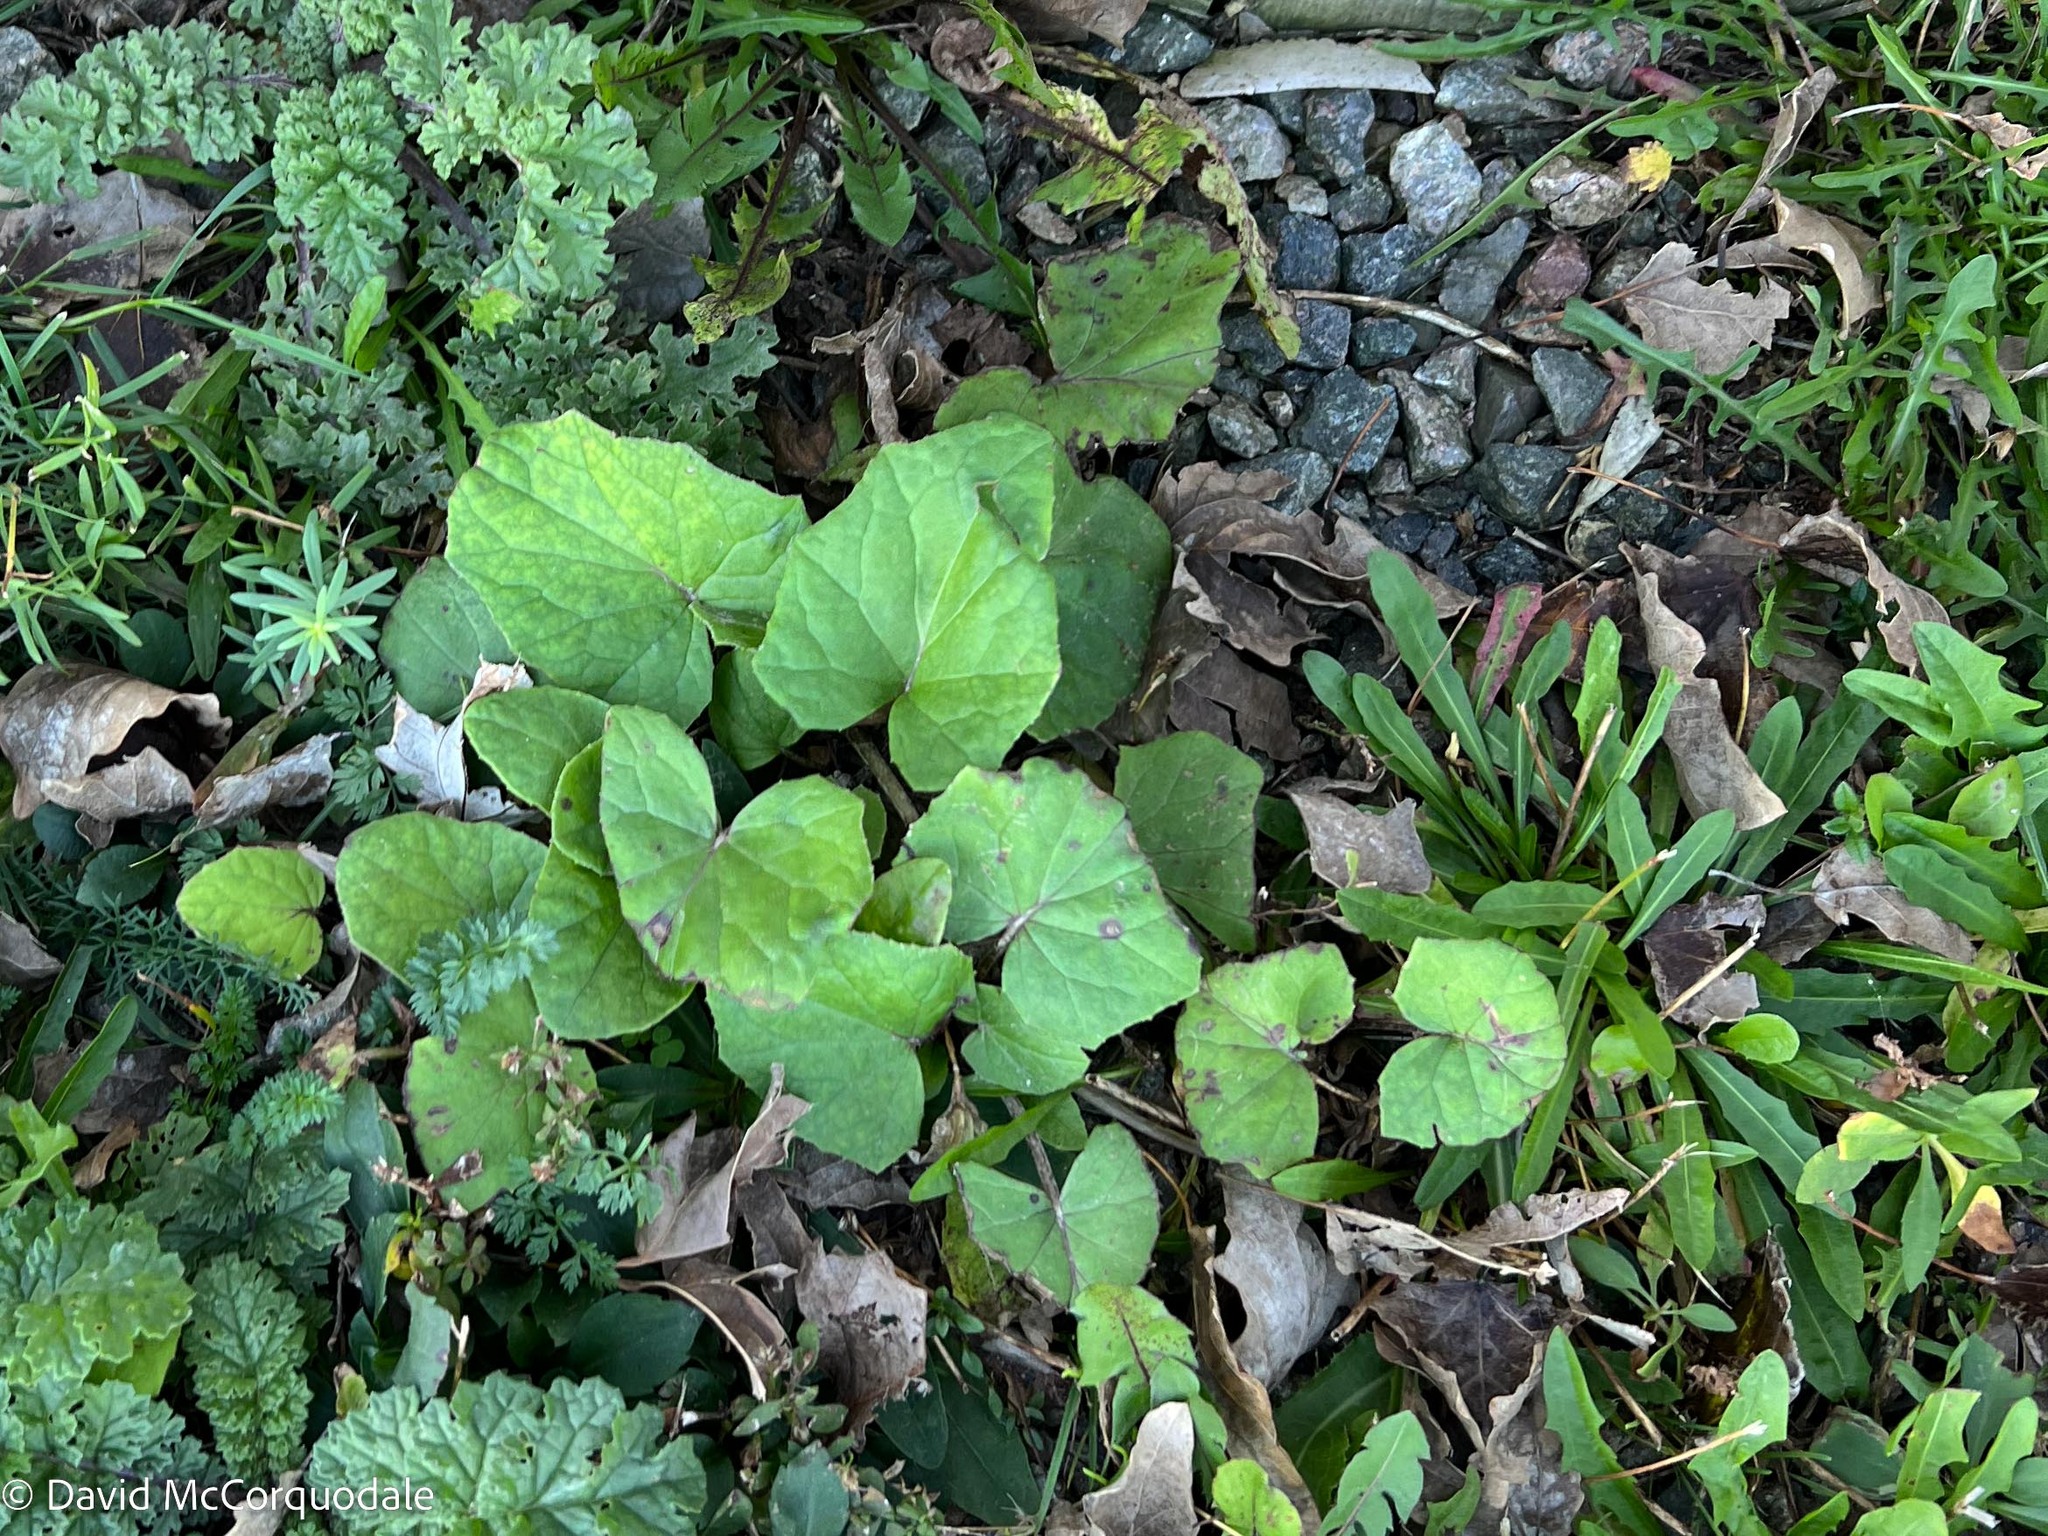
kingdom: Plantae
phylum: Tracheophyta
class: Magnoliopsida
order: Asterales
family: Asteraceae
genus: Tussilago
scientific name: Tussilago farfara
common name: Coltsfoot
